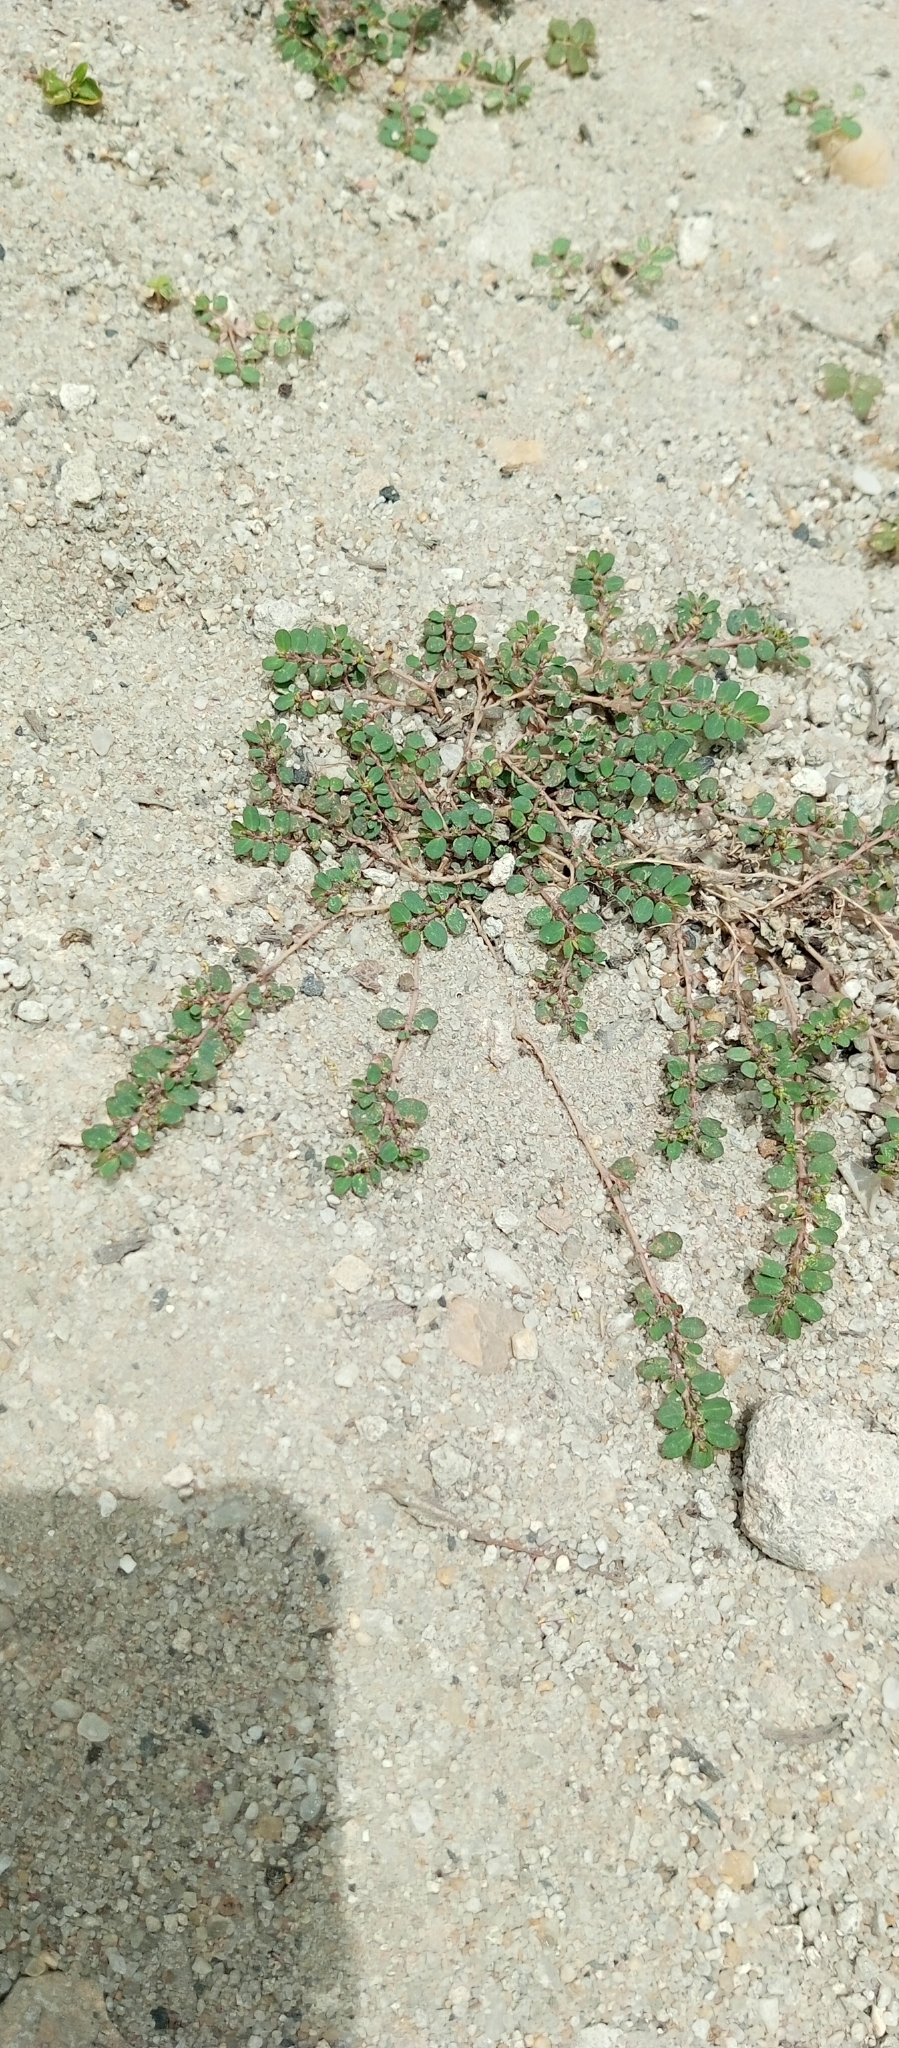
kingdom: Plantae
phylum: Tracheophyta
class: Magnoliopsida
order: Malpighiales
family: Euphorbiaceae
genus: Euphorbia
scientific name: Euphorbia prostrata
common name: Prostrate sandmat
